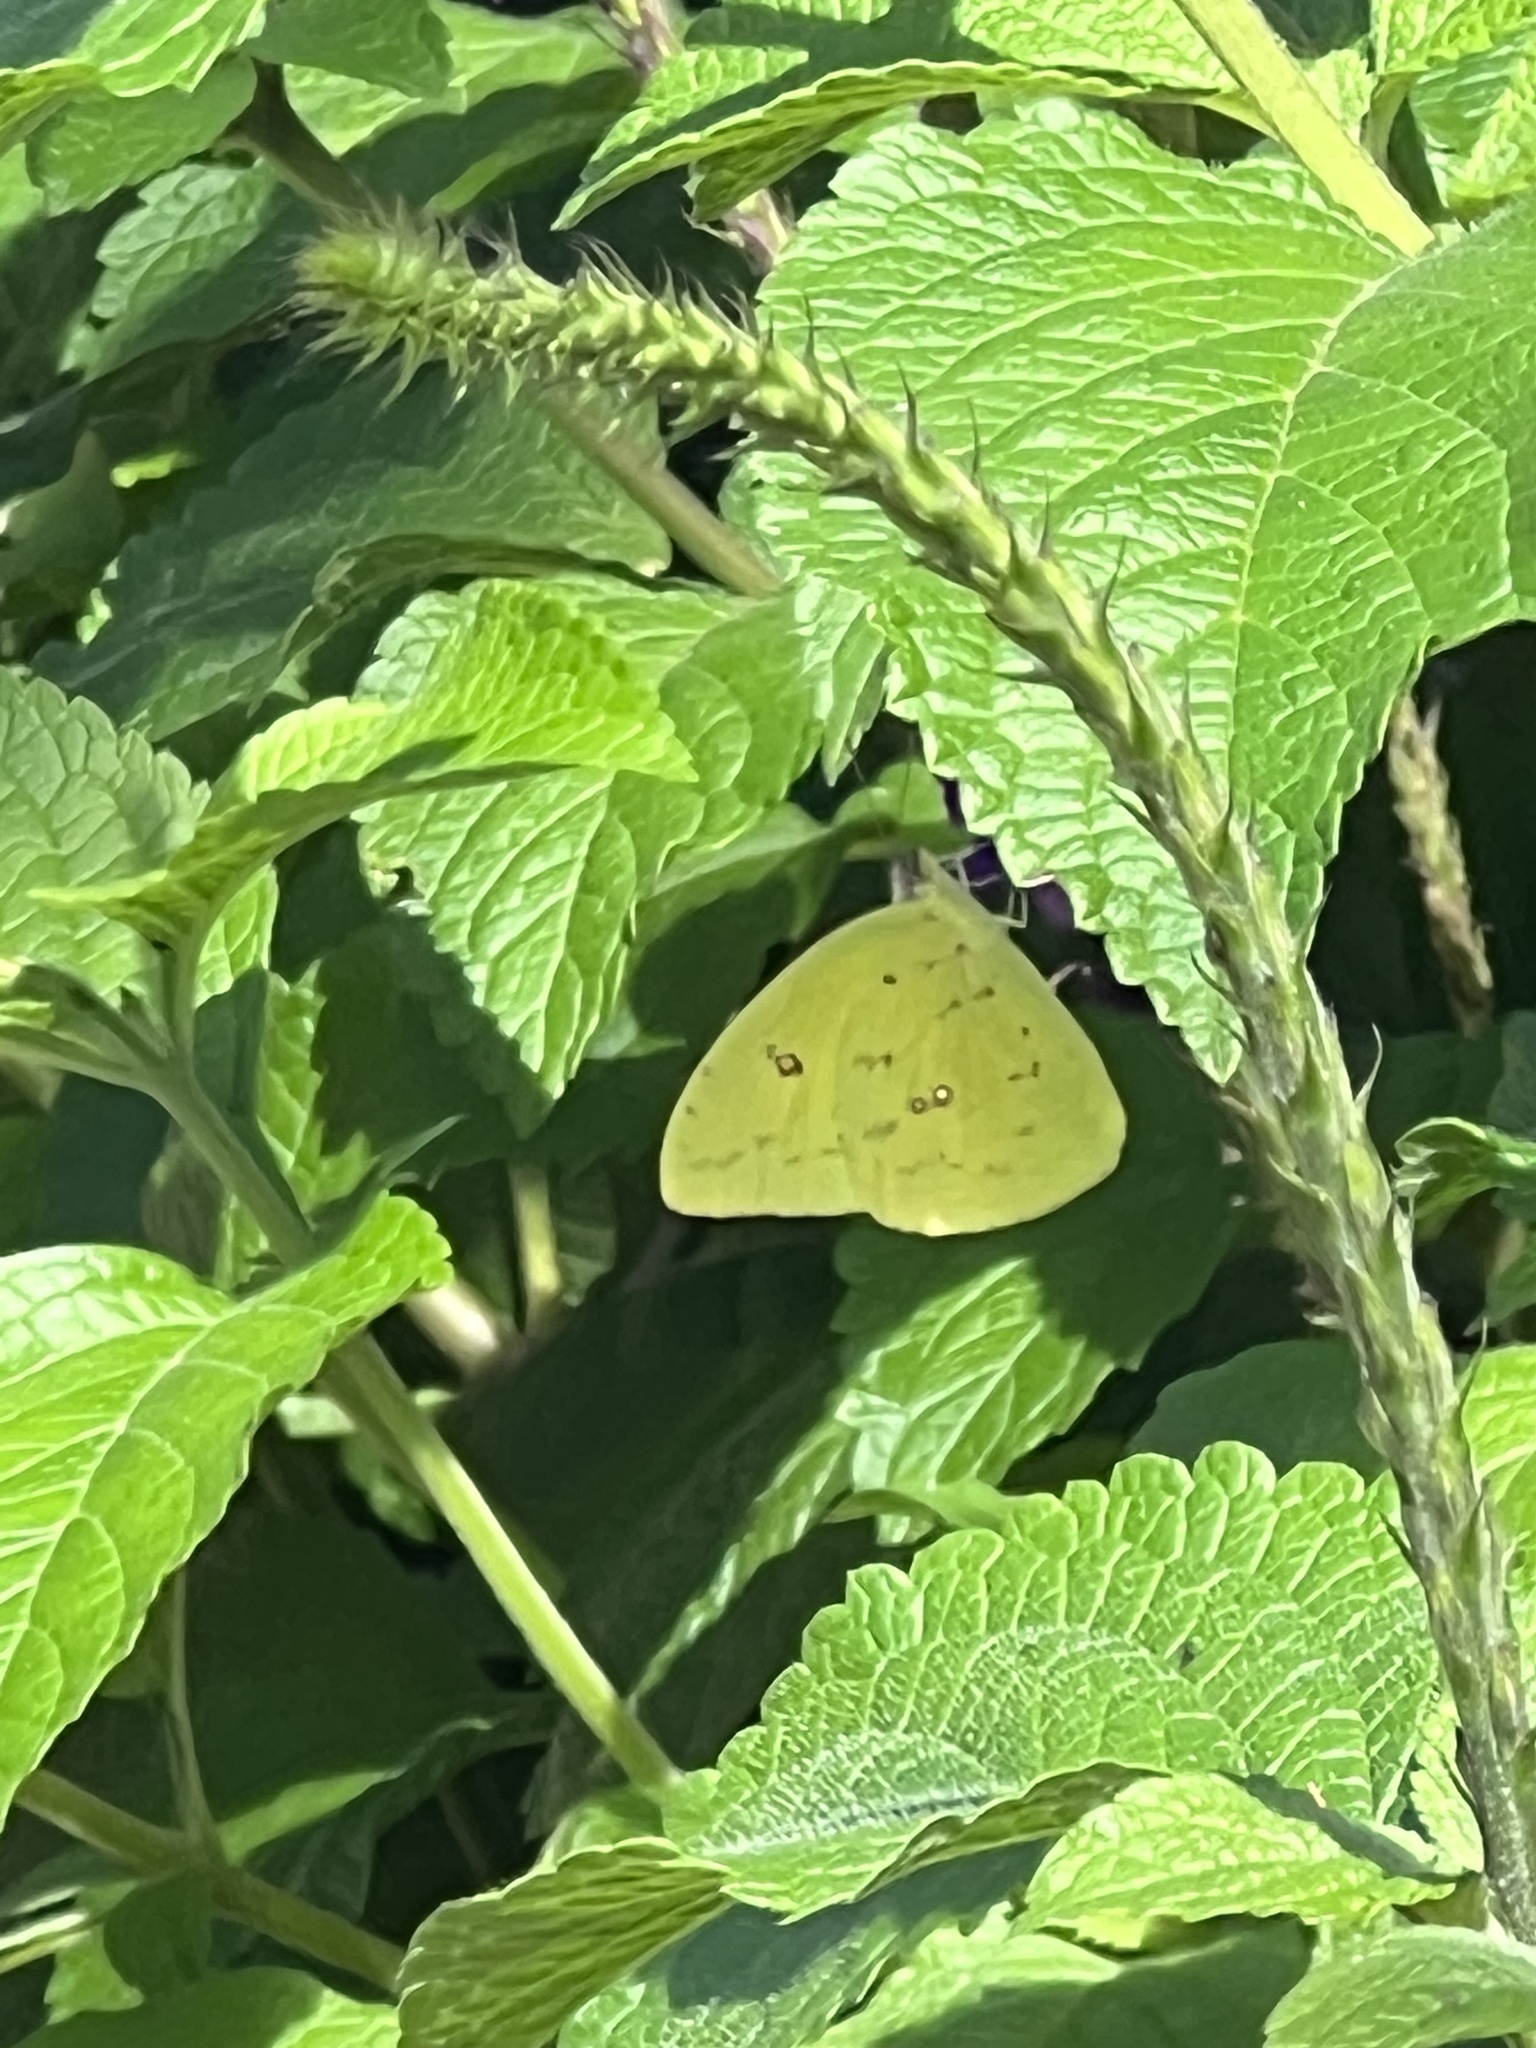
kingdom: Animalia
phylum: Arthropoda
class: Insecta
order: Lepidoptera
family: Pieridae
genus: Phoebis
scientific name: Phoebis sennae
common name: Cloudless sulphur
